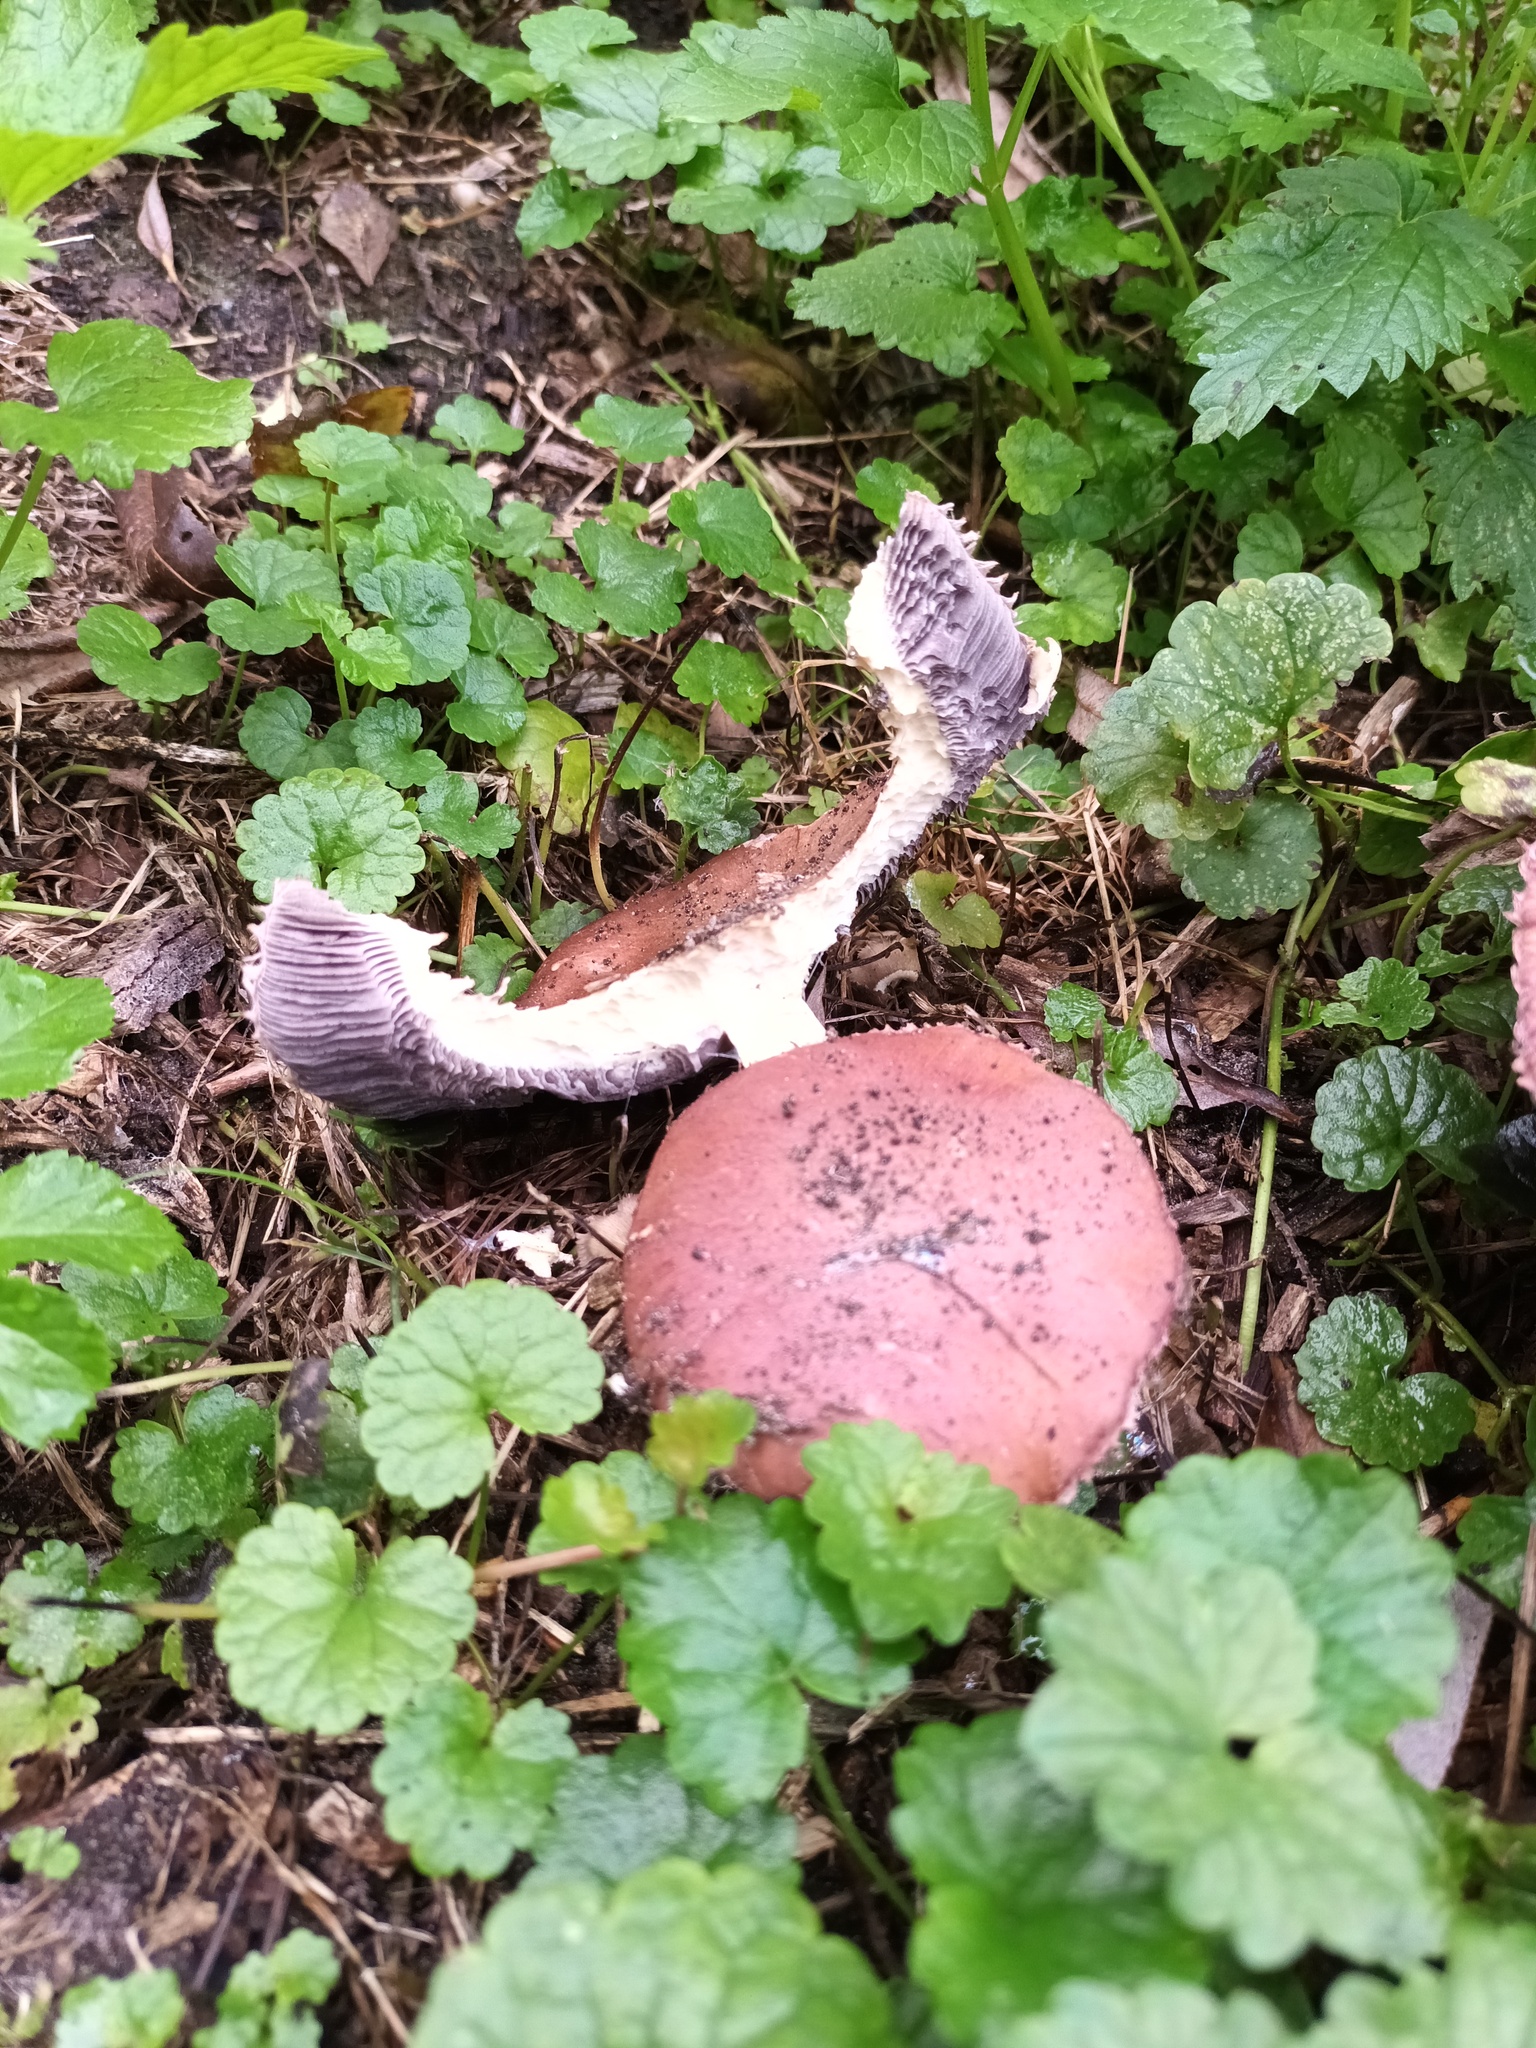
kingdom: Fungi
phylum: Basidiomycota
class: Agaricomycetes
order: Agaricales
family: Strophariaceae
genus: Stropharia
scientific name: Stropharia rugosoannulata
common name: Wine roundhead
